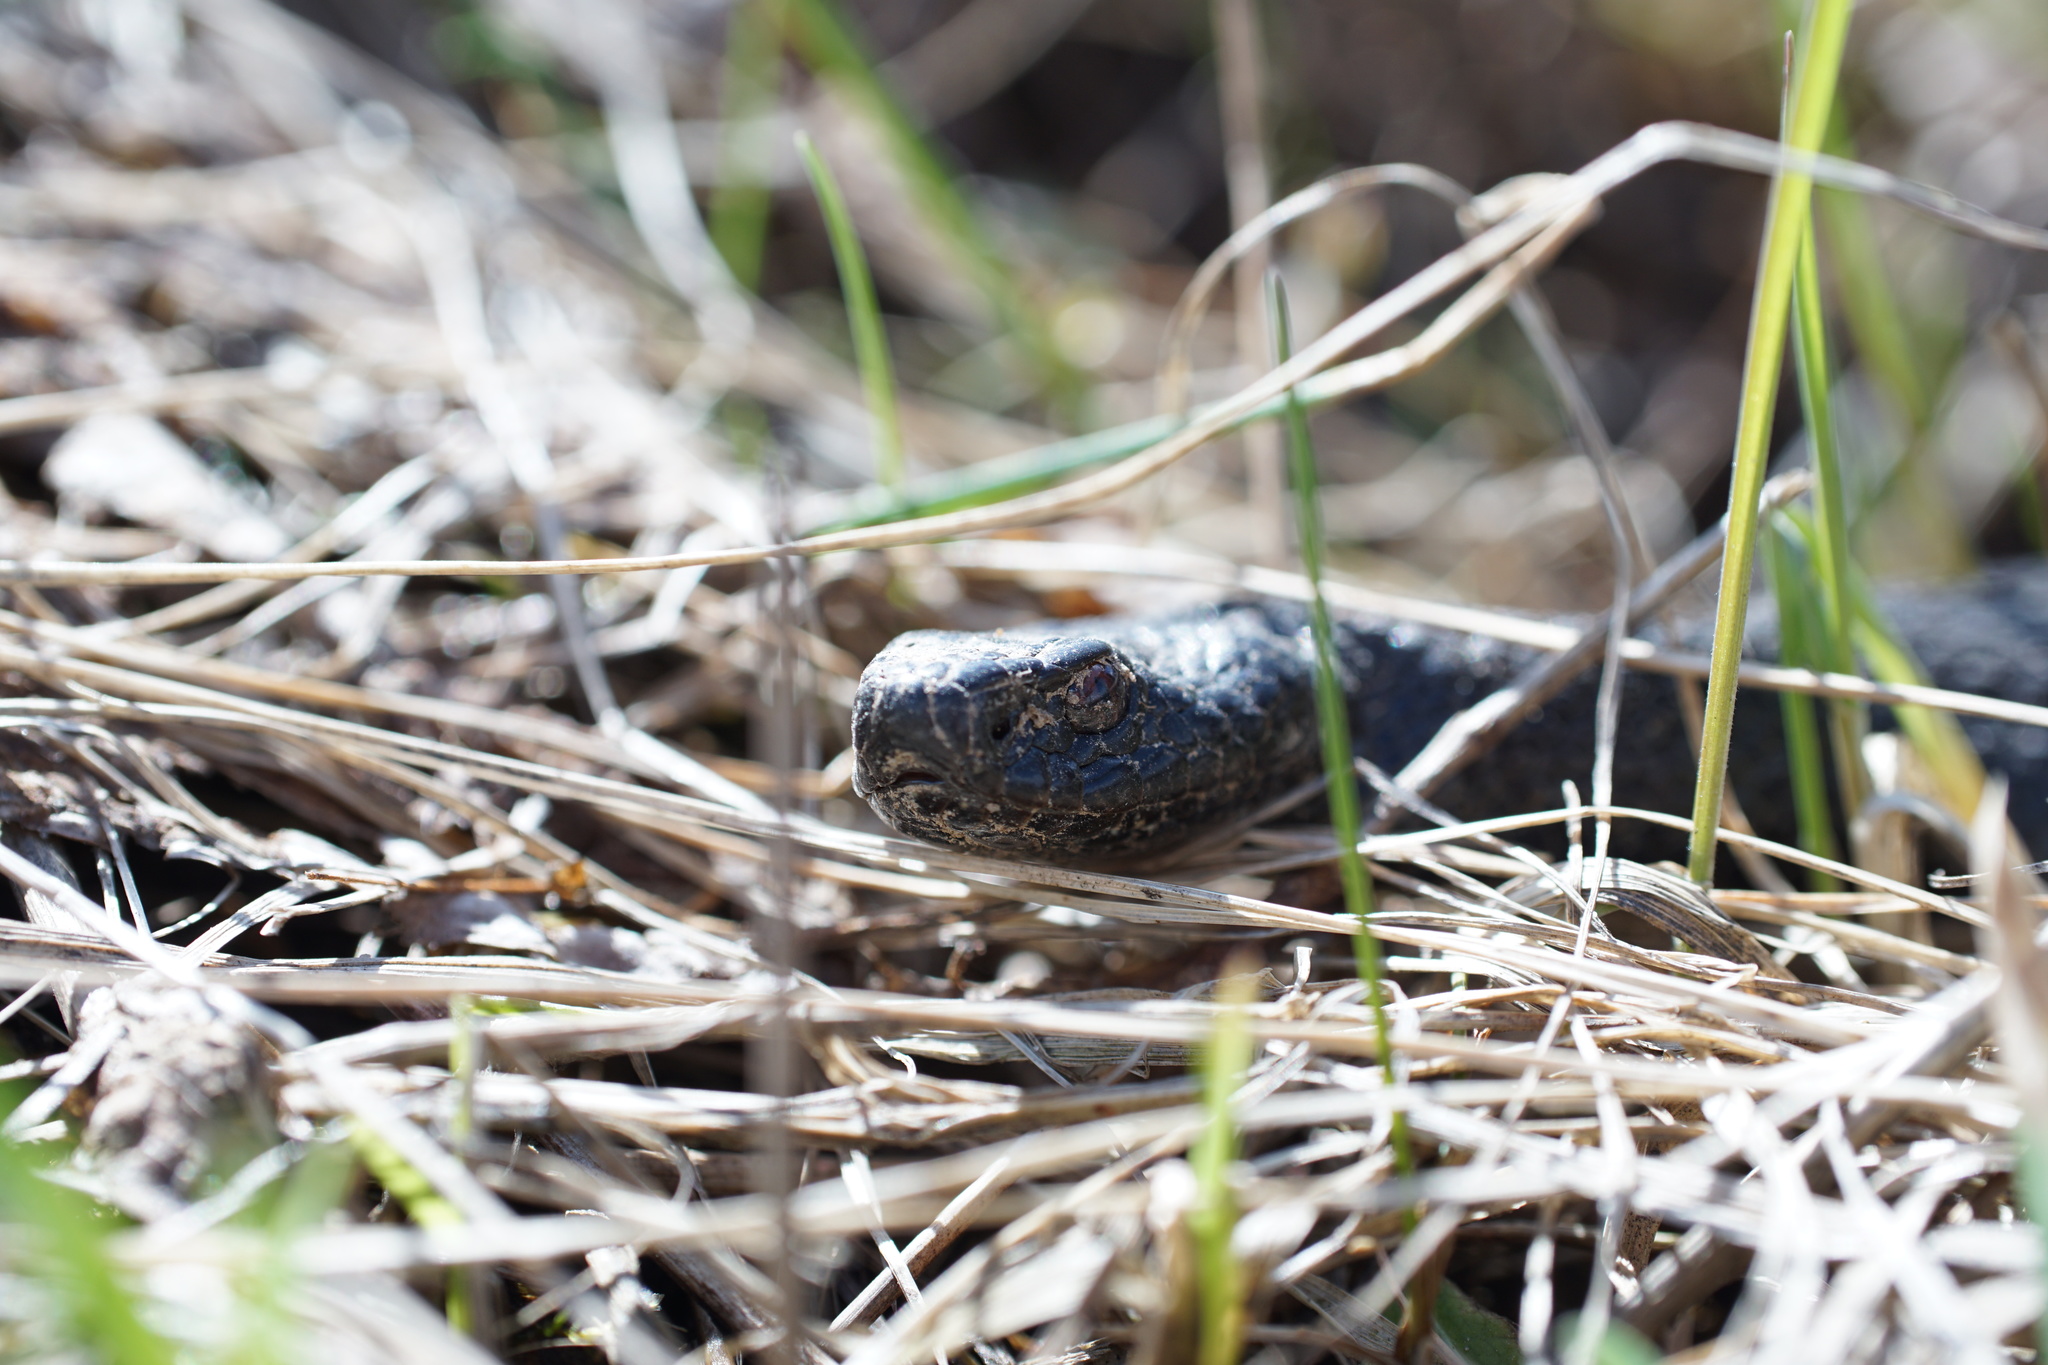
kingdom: Animalia
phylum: Chordata
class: Squamata
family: Viperidae
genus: Vipera
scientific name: Vipera berus
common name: Adder
